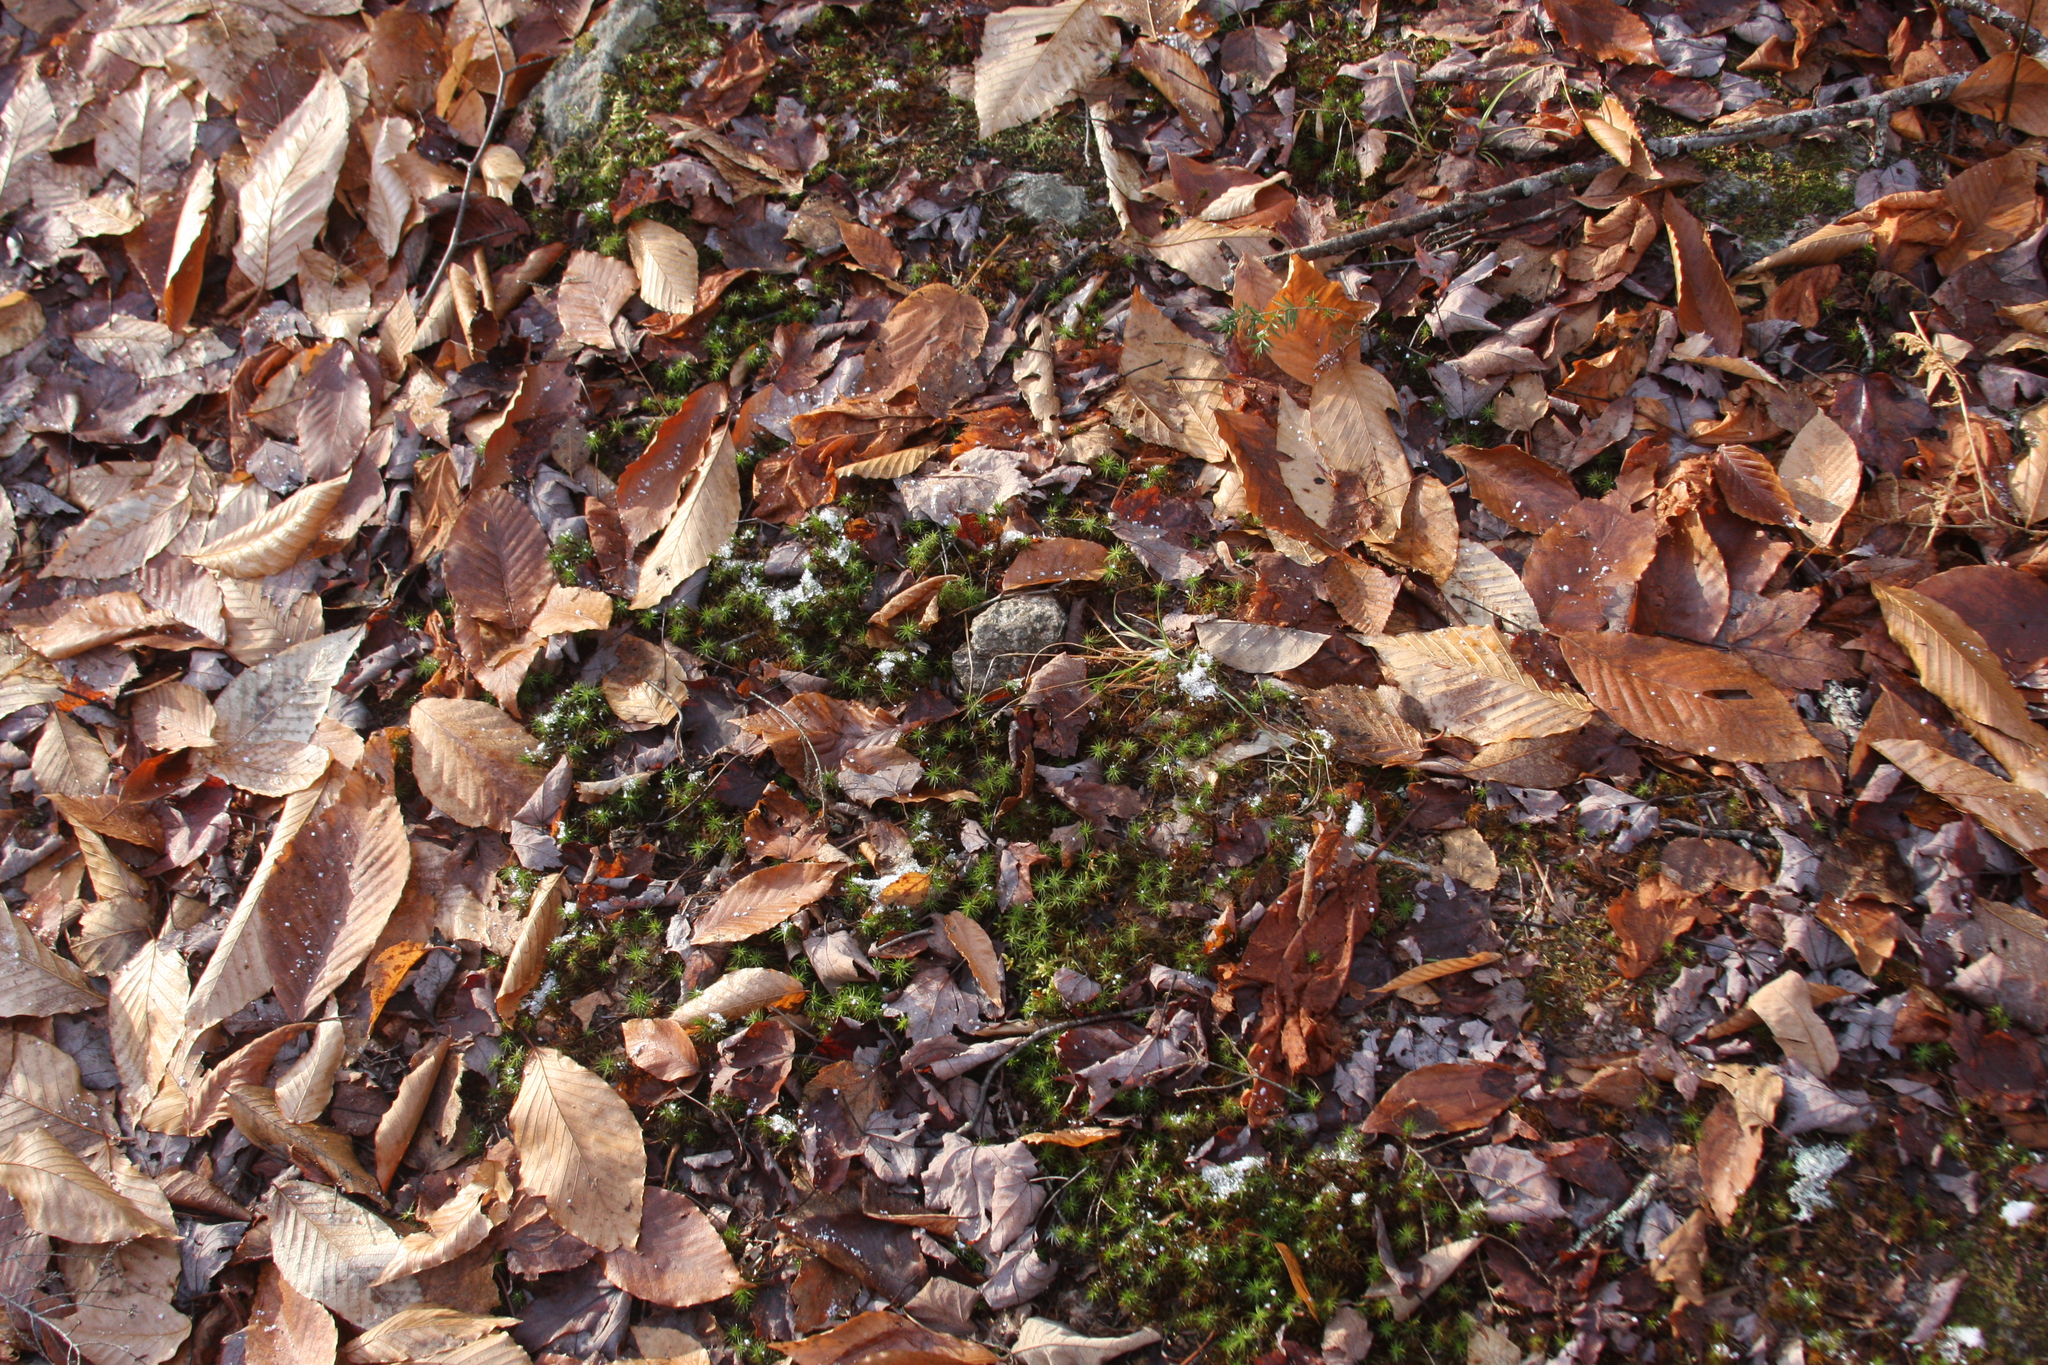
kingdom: Plantae
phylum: Tracheophyta
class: Magnoliopsida
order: Fagales
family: Fagaceae
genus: Fagus
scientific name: Fagus grandifolia
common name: American beech
